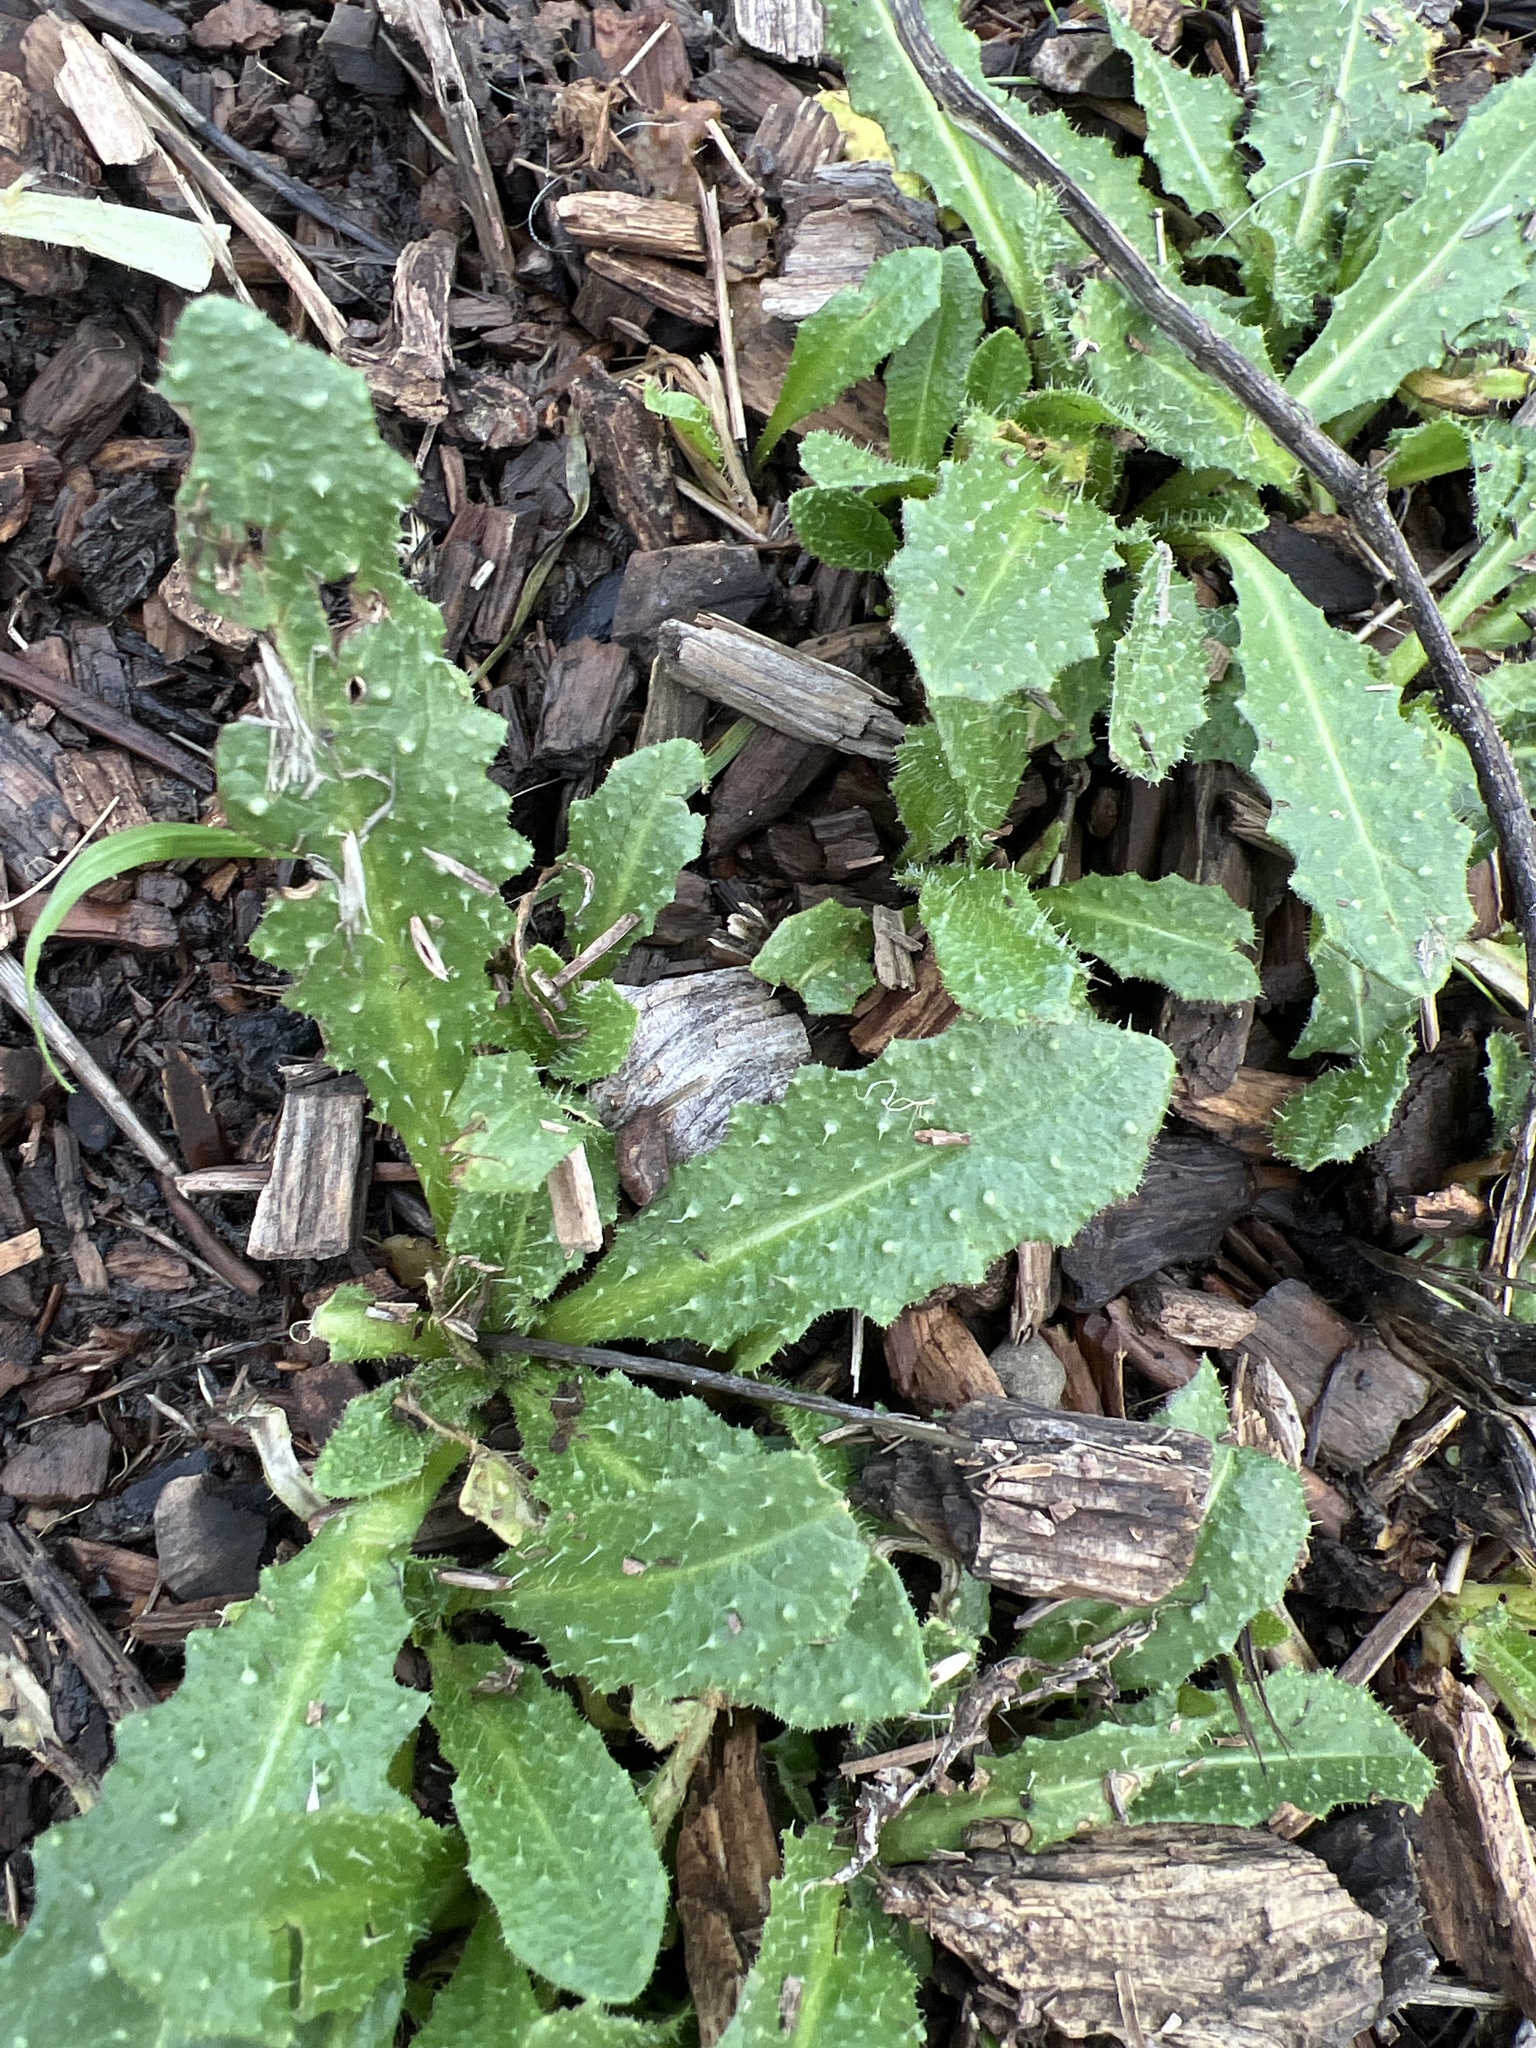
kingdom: Plantae
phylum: Tracheophyta
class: Magnoliopsida
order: Asterales
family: Asteraceae
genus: Helminthotheca
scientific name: Helminthotheca echioides
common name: Ox-tongue
